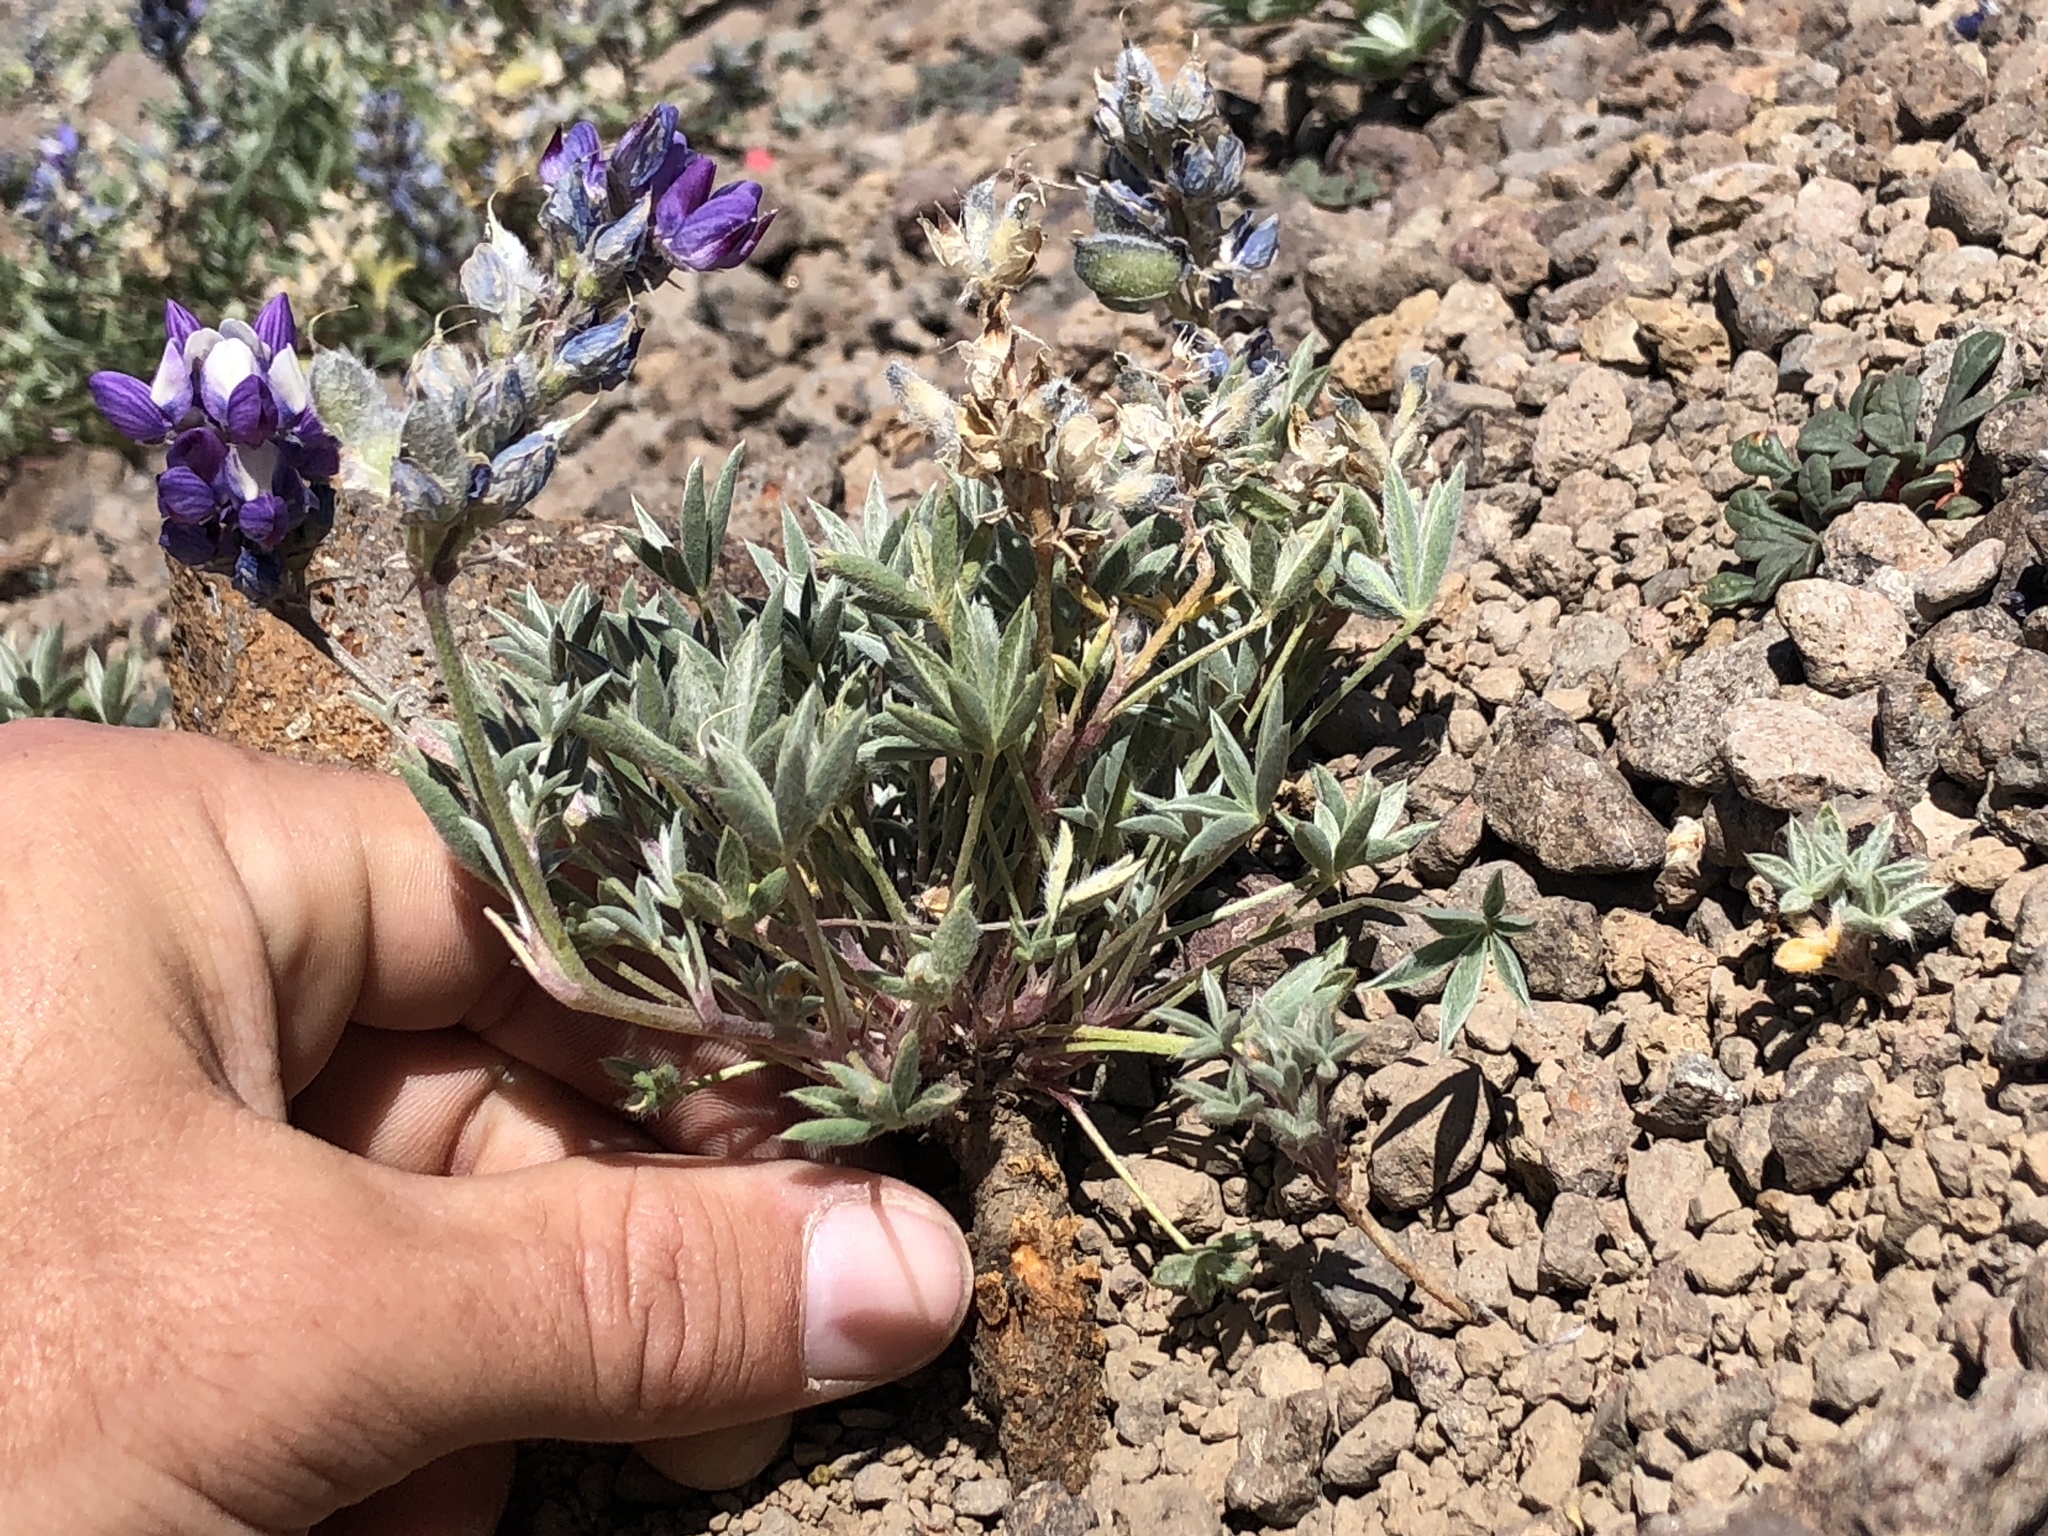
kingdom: Plantae
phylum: Tracheophyta
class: Magnoliopsida
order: Fabales
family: Fabaceae
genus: Lupinus
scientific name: Lupinus lepidus
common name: Prairie lupine
